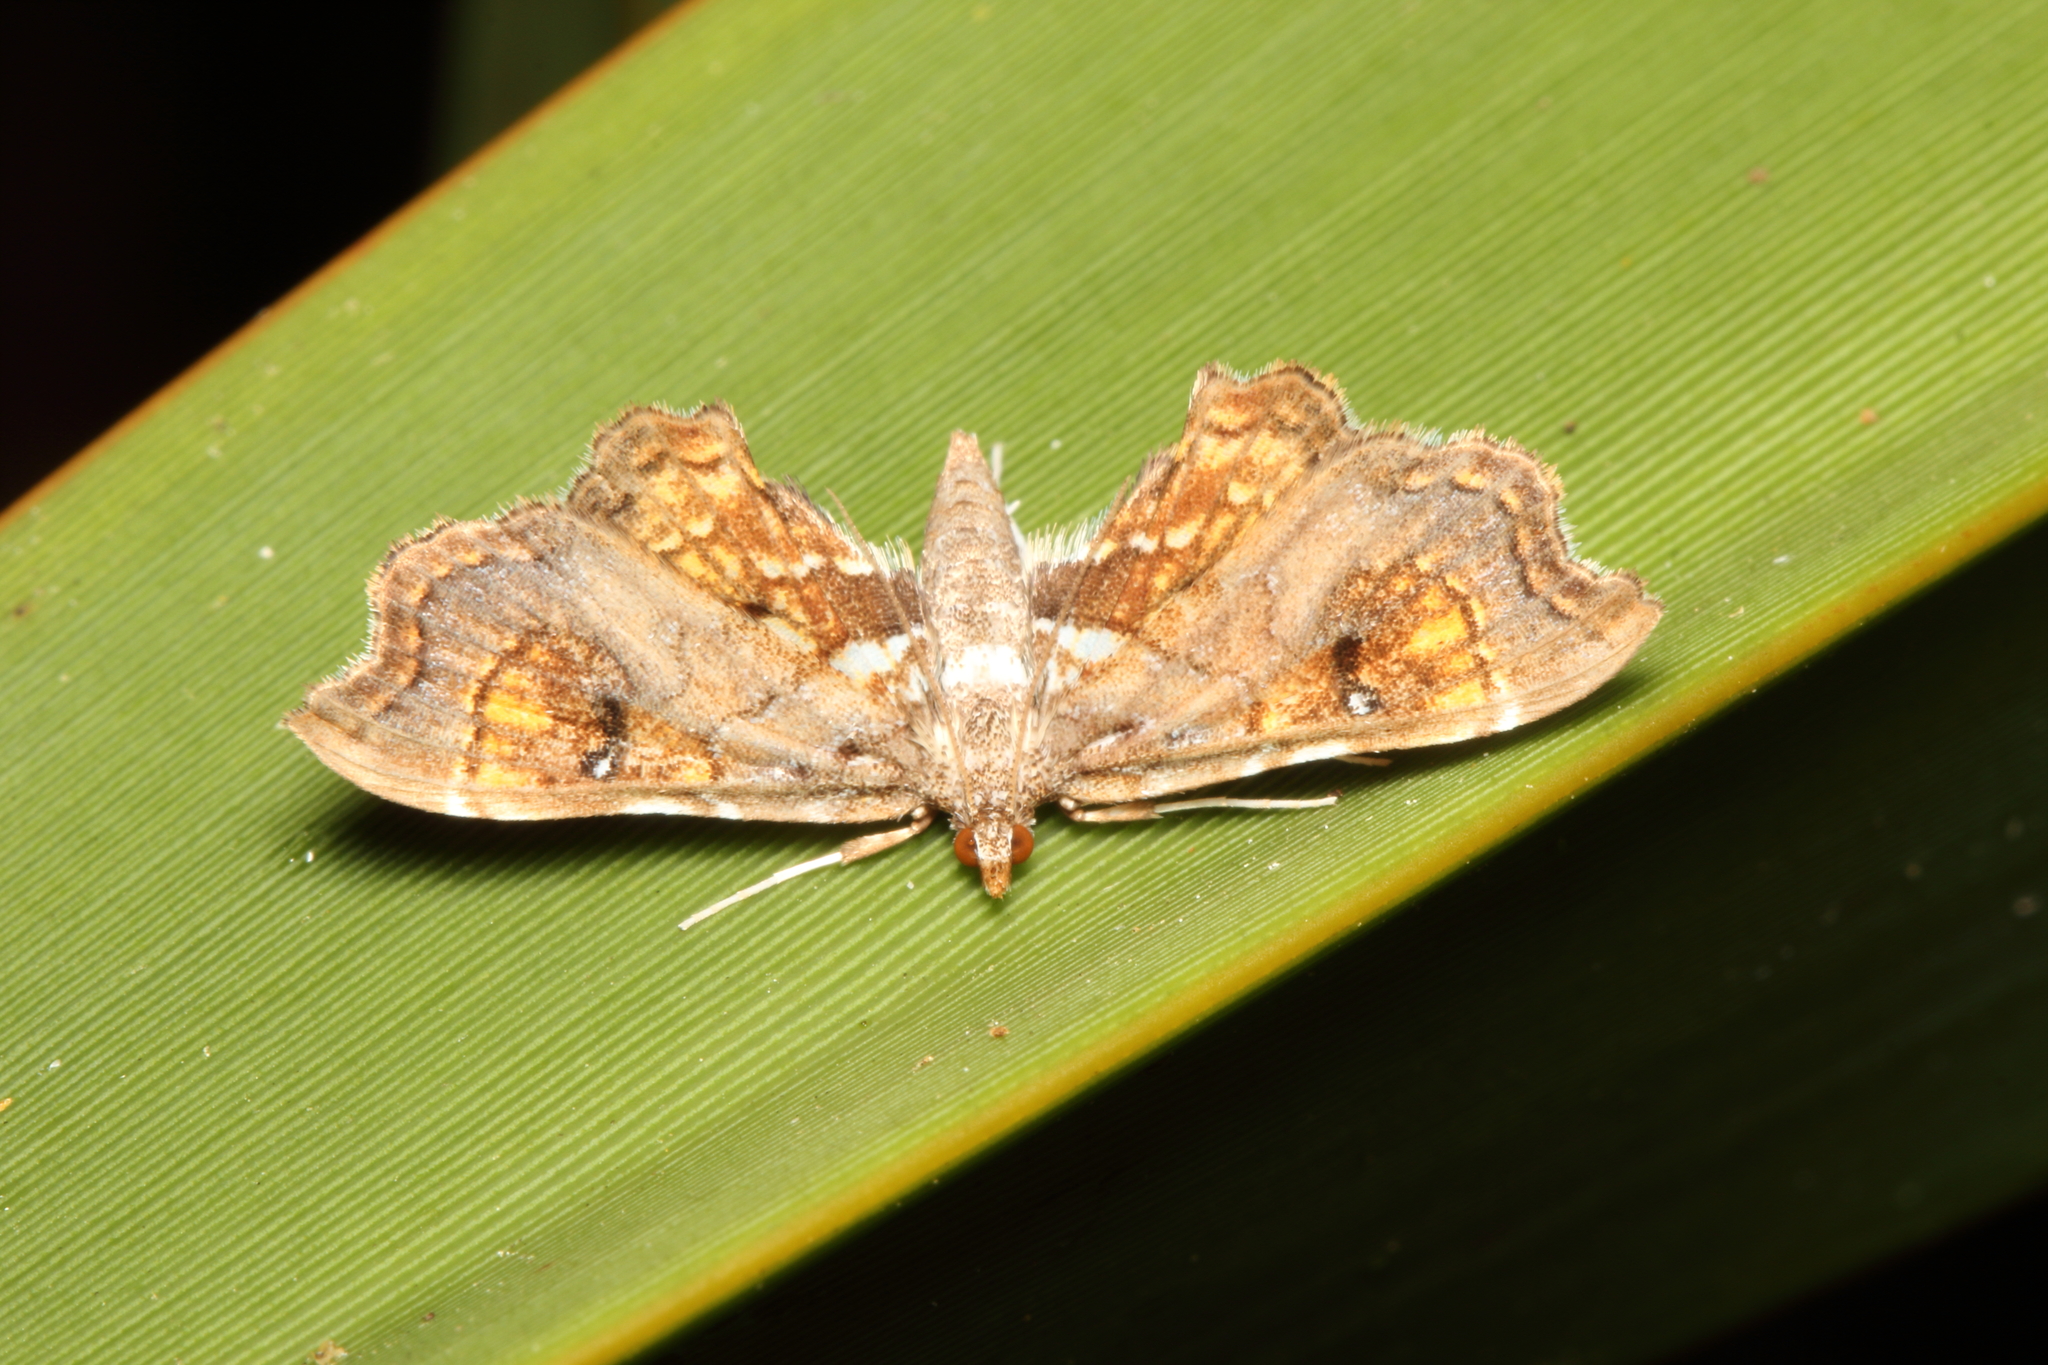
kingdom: Animalia
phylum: Arthropoda
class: Insecta
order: Lepidoptera
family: Pyralidae
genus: Musotima
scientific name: Musotima aduncalis
